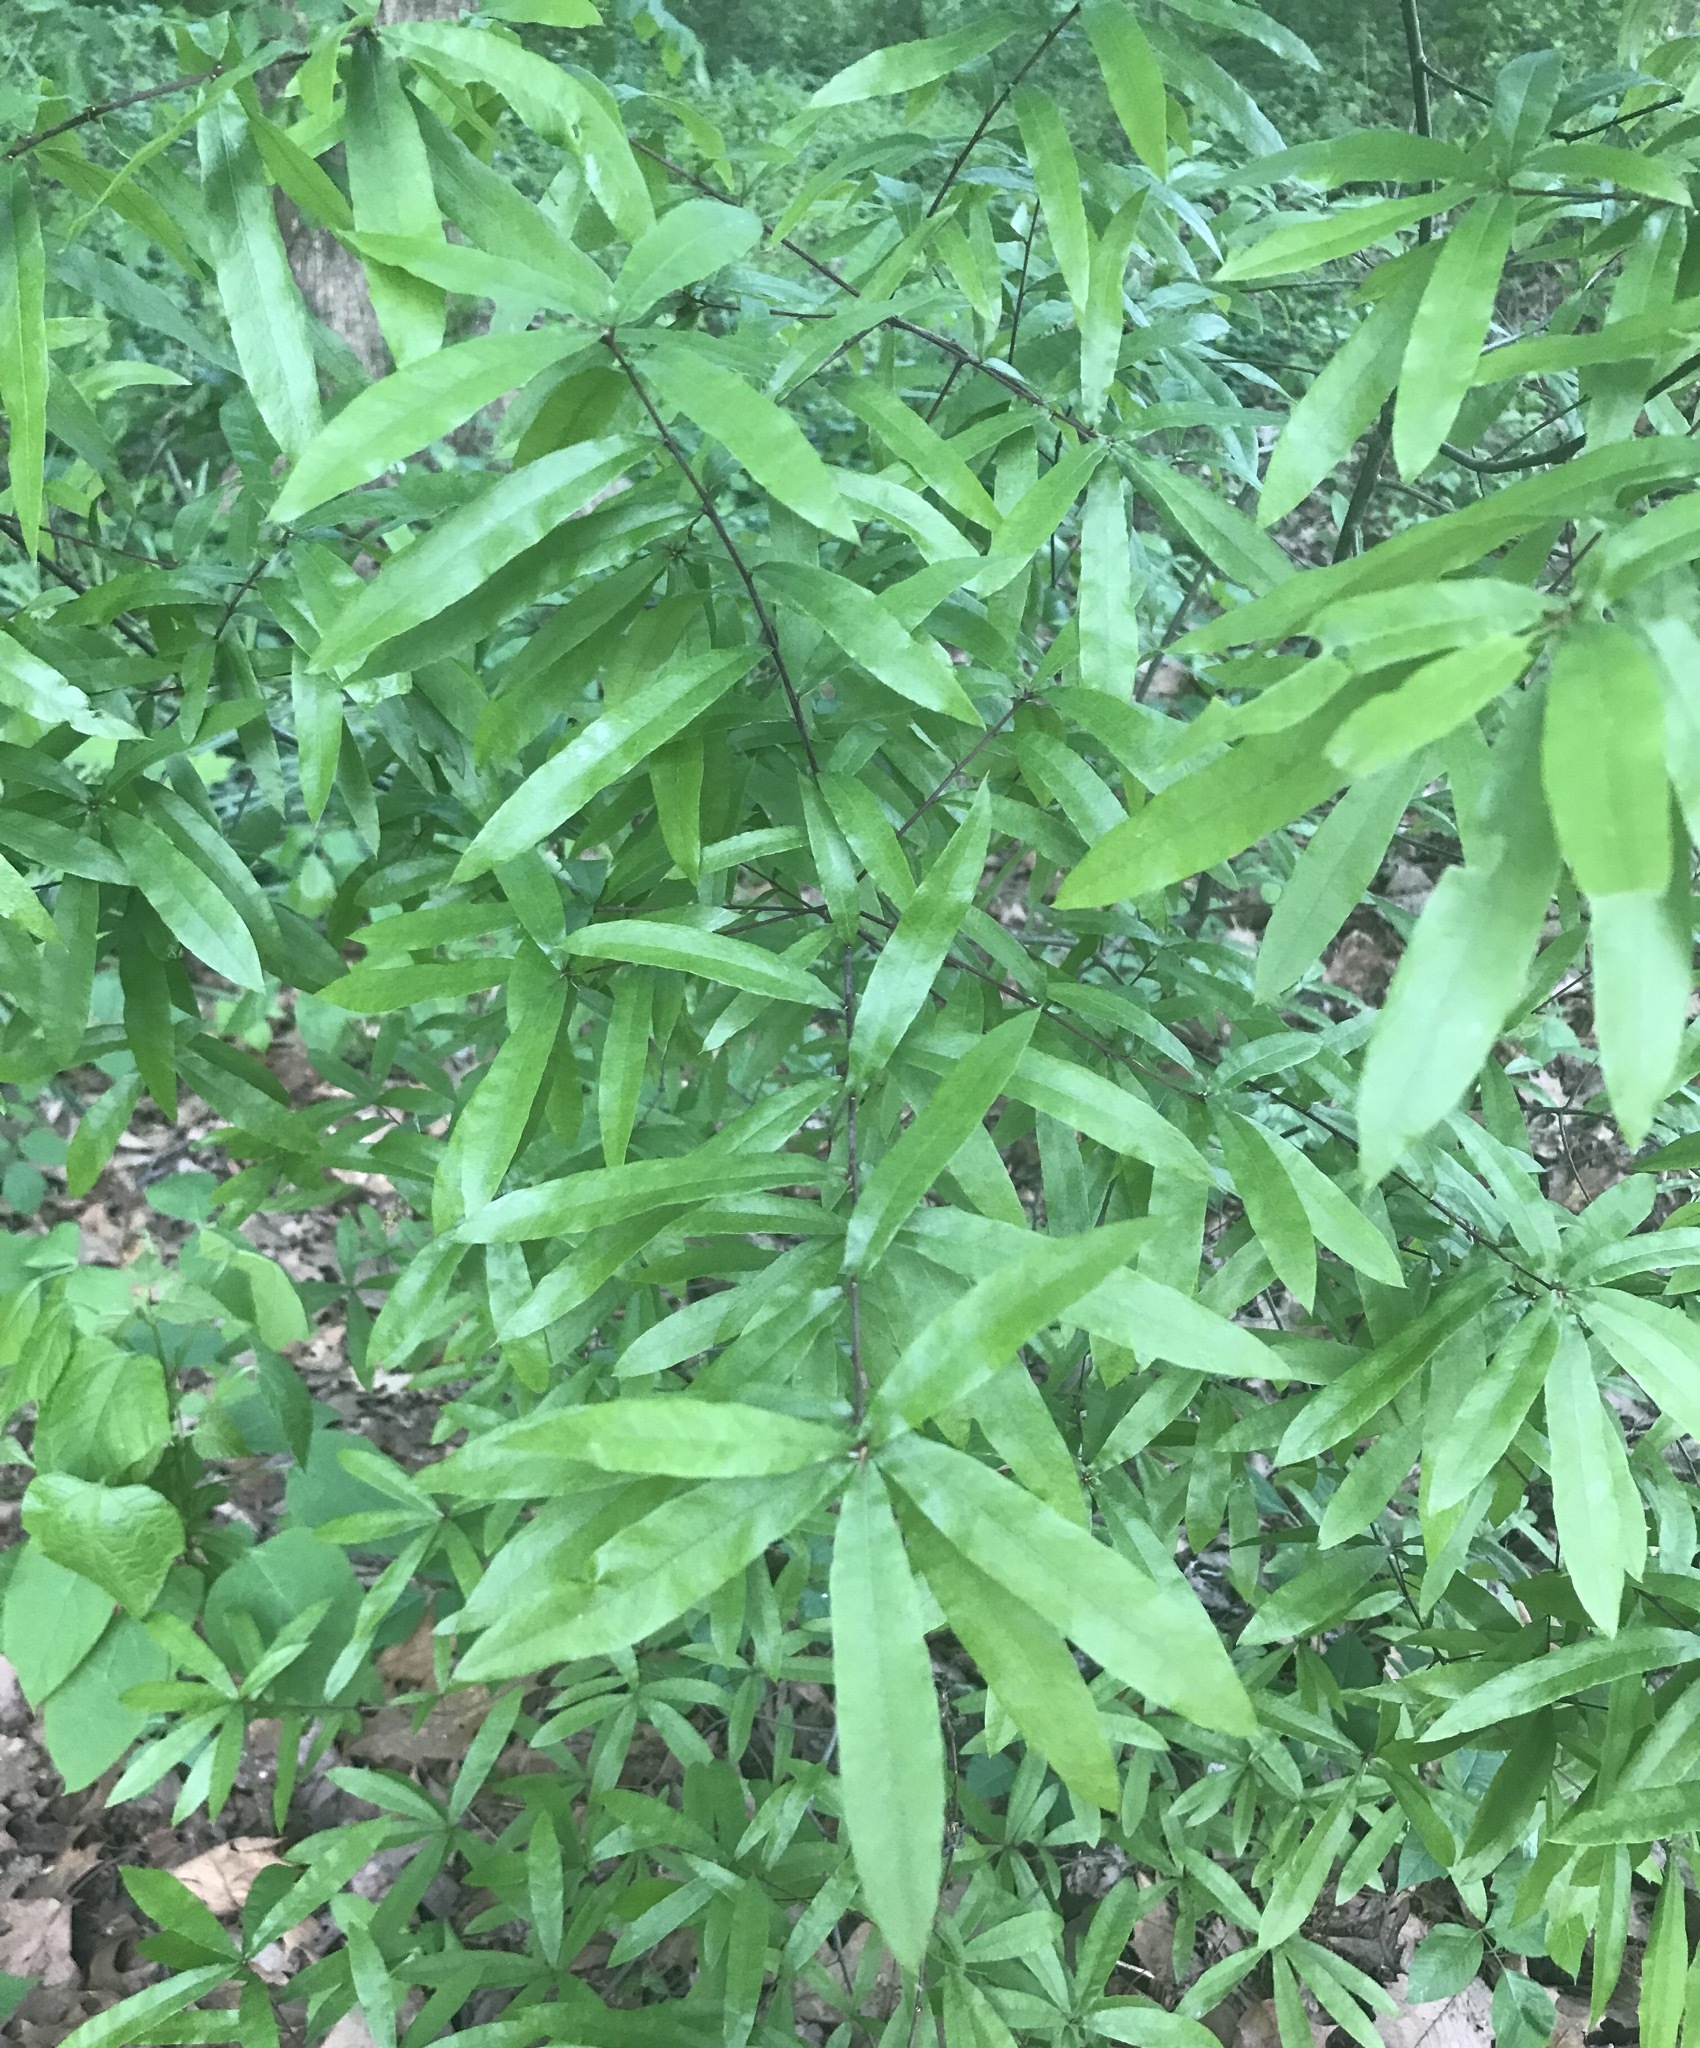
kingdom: Plantae
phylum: Tracheophyta
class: Magnoliopsida
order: Fagales
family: Fagaceae
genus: Quercus
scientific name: Quercus phellos
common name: Willow oak
